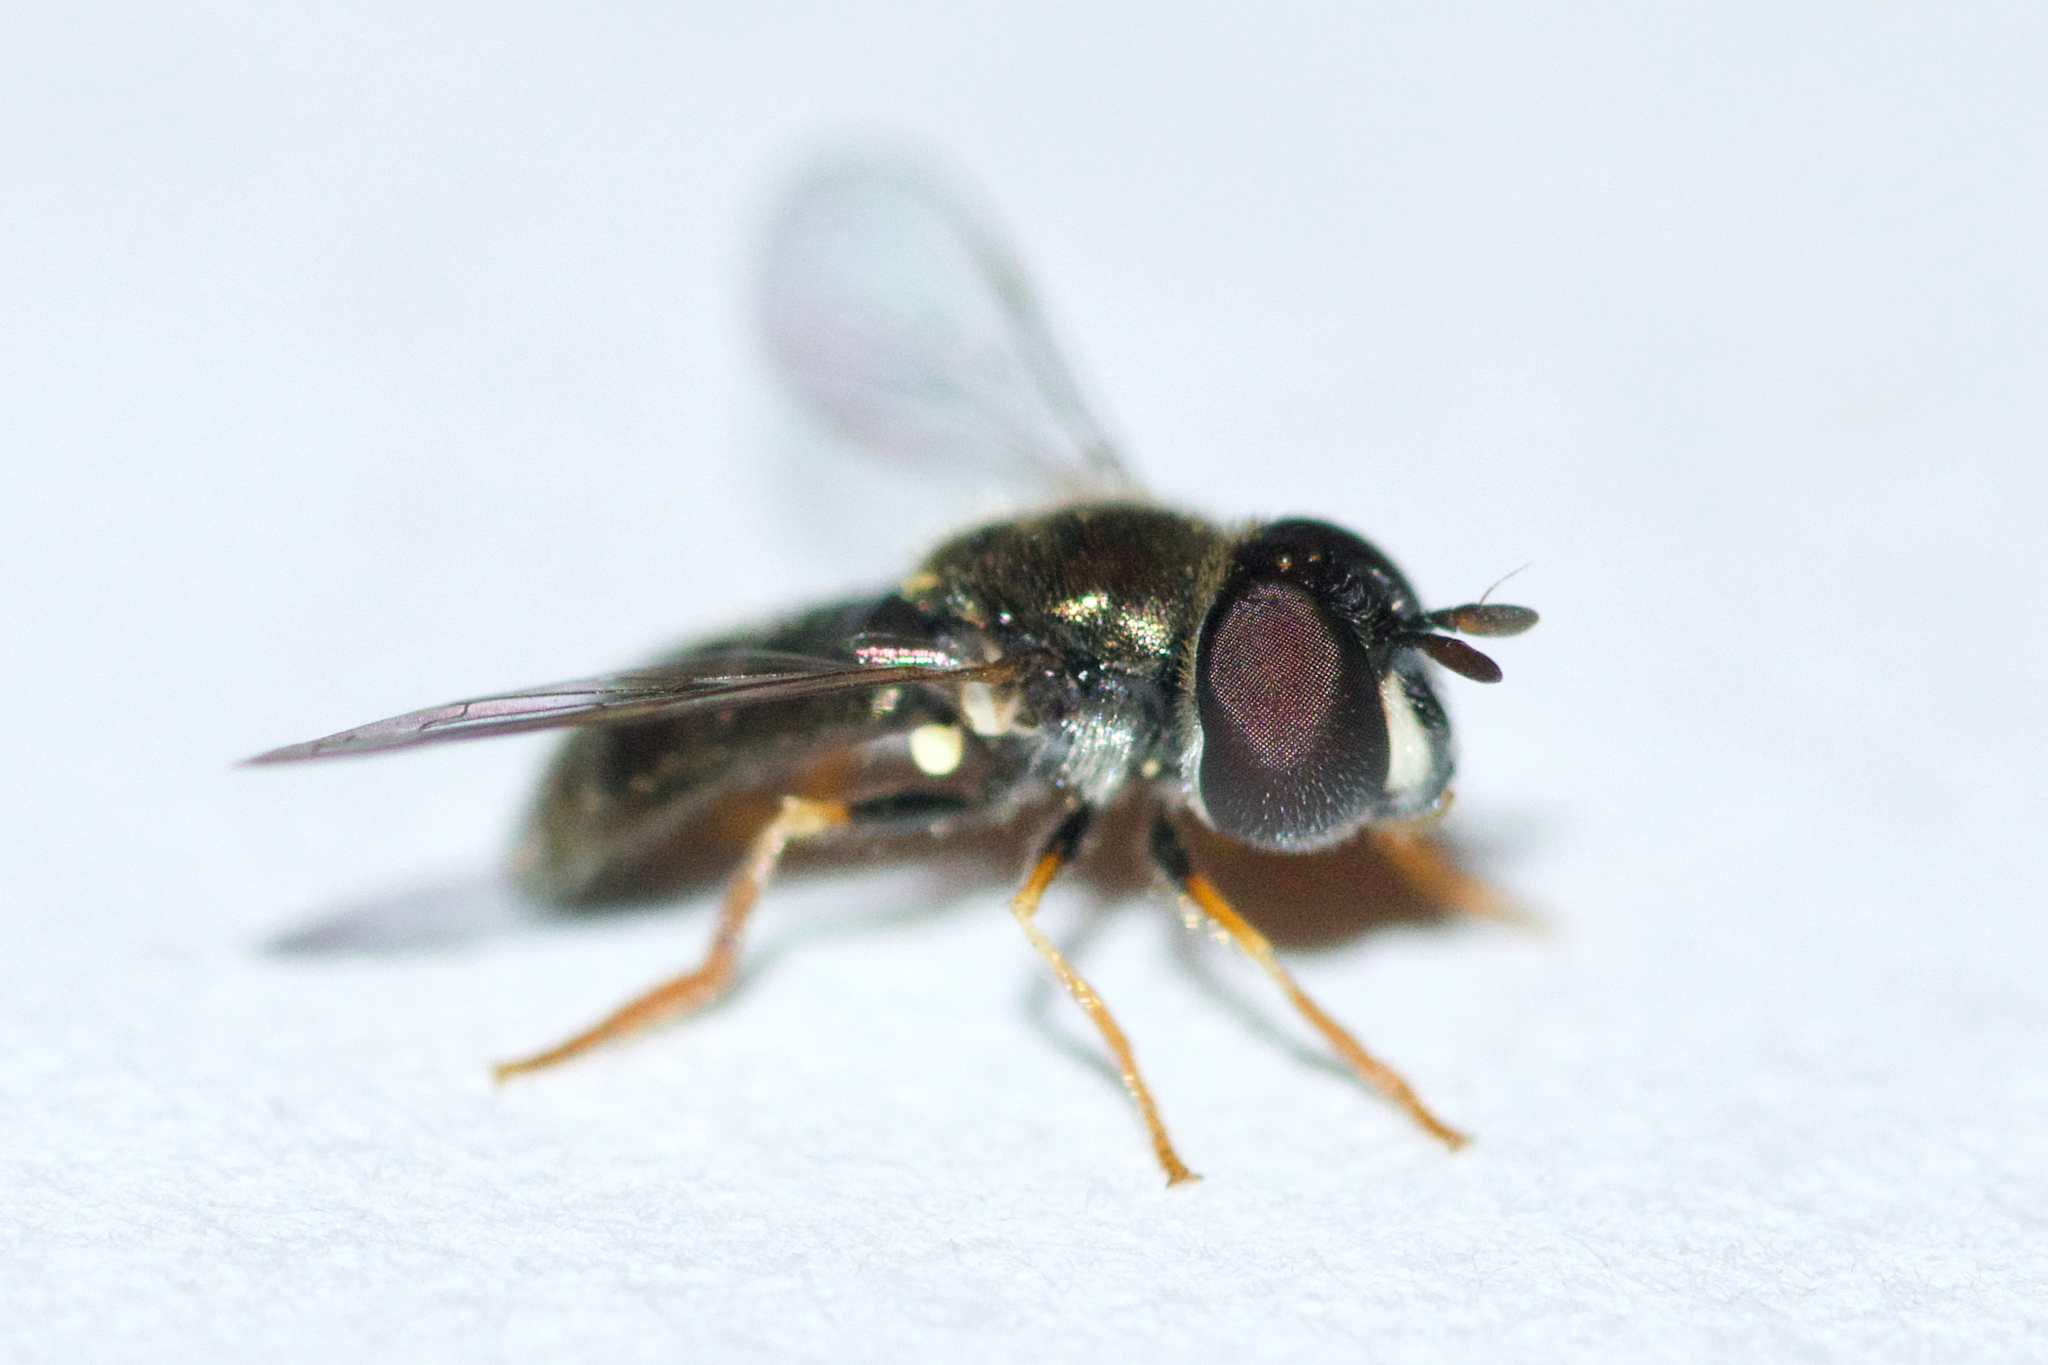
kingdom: Animalia
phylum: Arthropoda
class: Insecta
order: Diptera
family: Syrphidae
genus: Paragus
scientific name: Paragus haemorrhous
